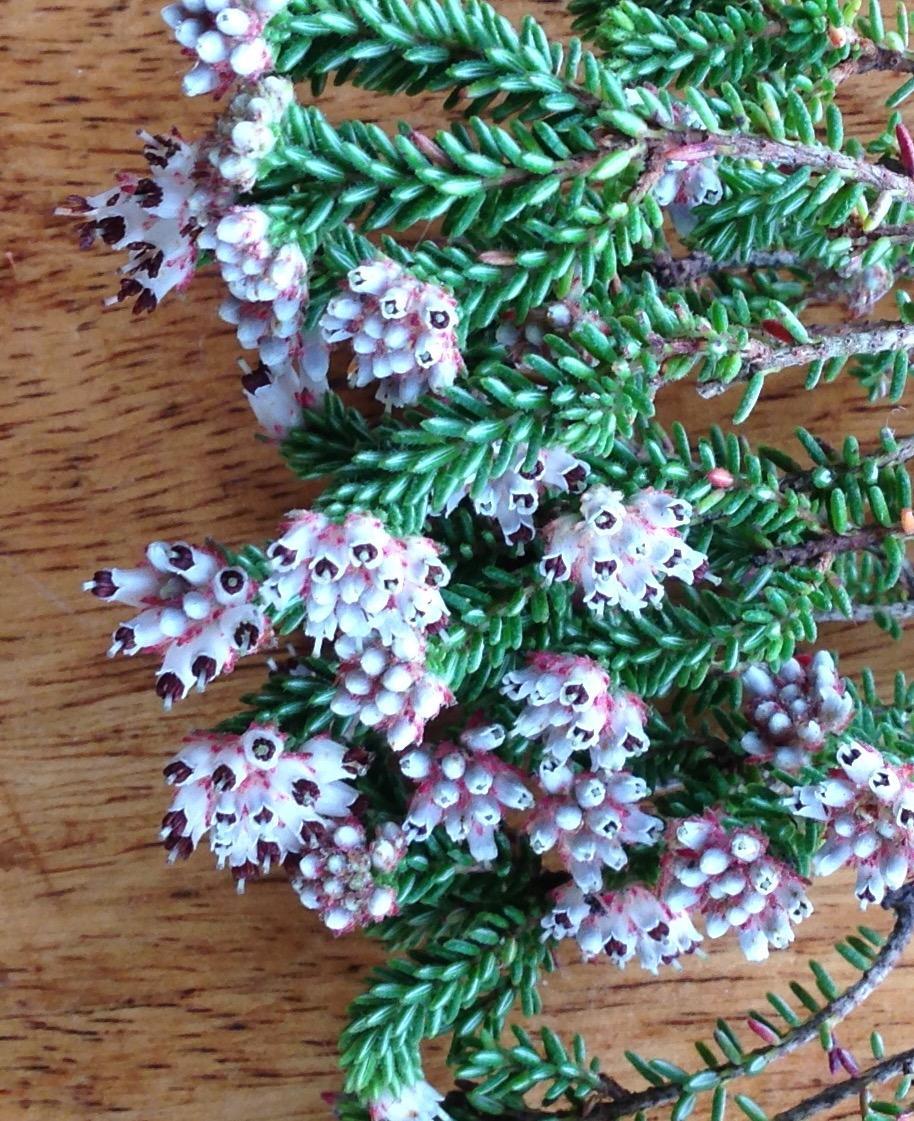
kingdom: Plantae
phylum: Tracheophyta
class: Magnoliopsida
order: Ericales
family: Ericaceae
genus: Erica
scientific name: Erica stylaris
